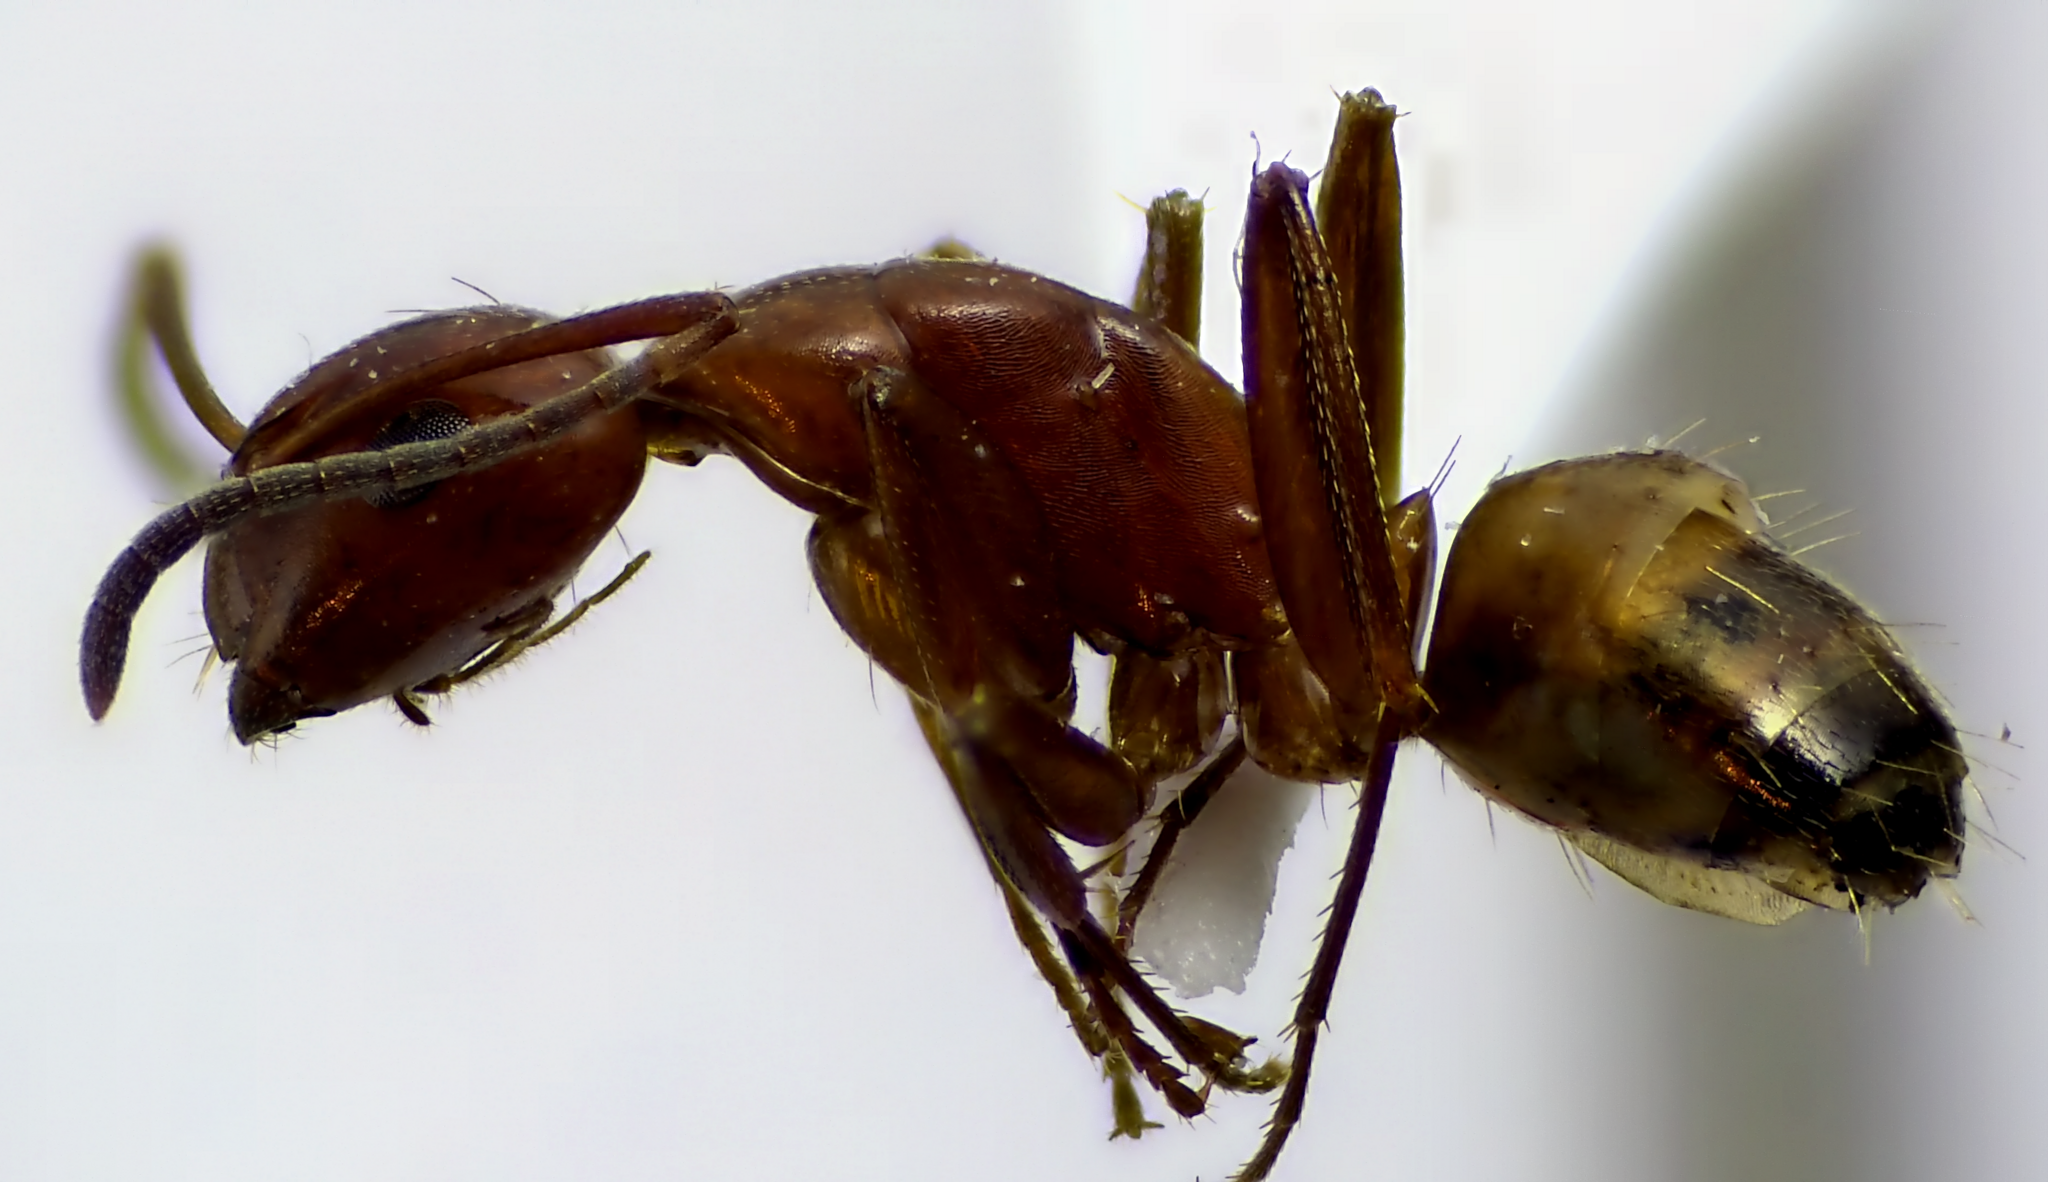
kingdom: Animalia
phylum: Arthropoda
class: Insecta
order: Hymenoptera
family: Formicidae
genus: Camponotus
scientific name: Camponotus snellingi
